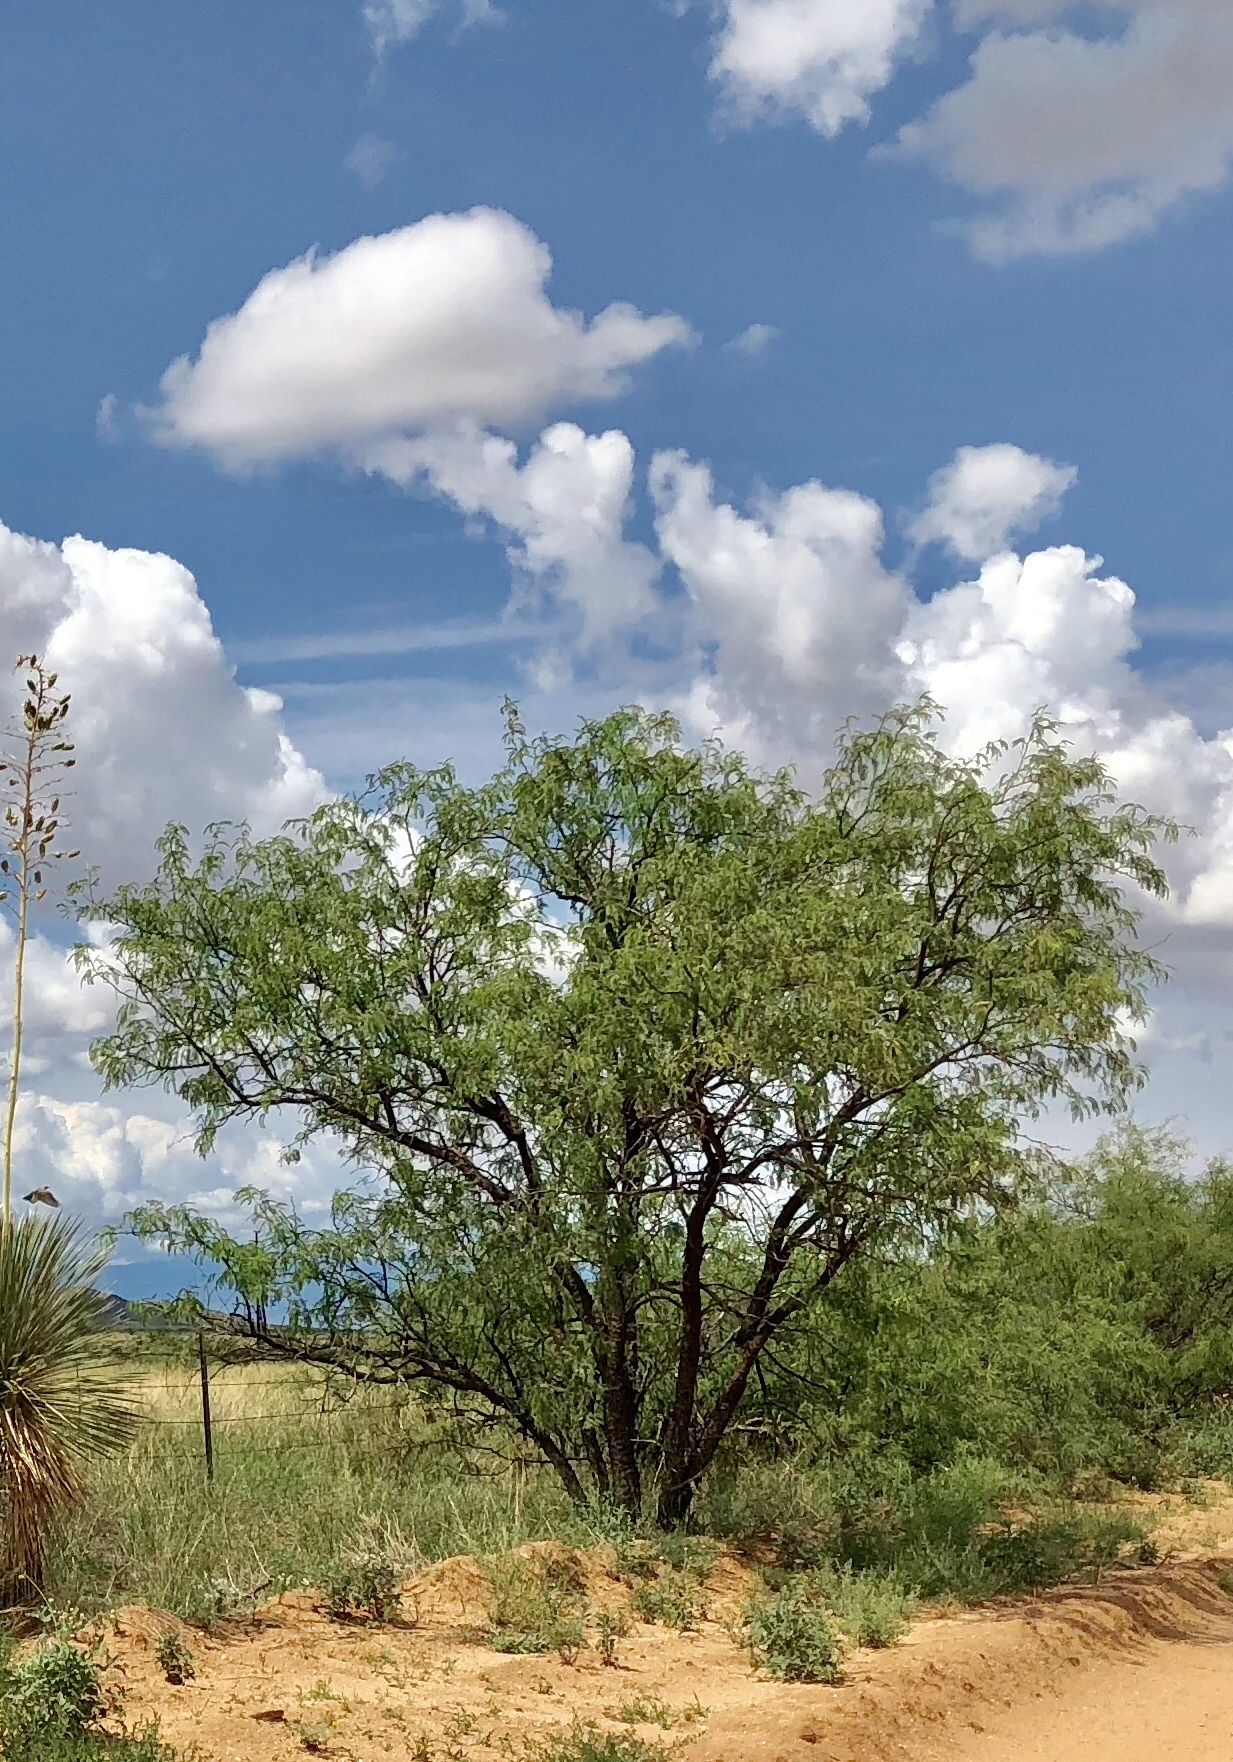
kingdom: Plantae
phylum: Tracheophyta
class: Magnoliopsida
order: Fabales
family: Fabaceae
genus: Prosopis
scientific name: Prosopis glandulosa
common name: Honey mesquite
